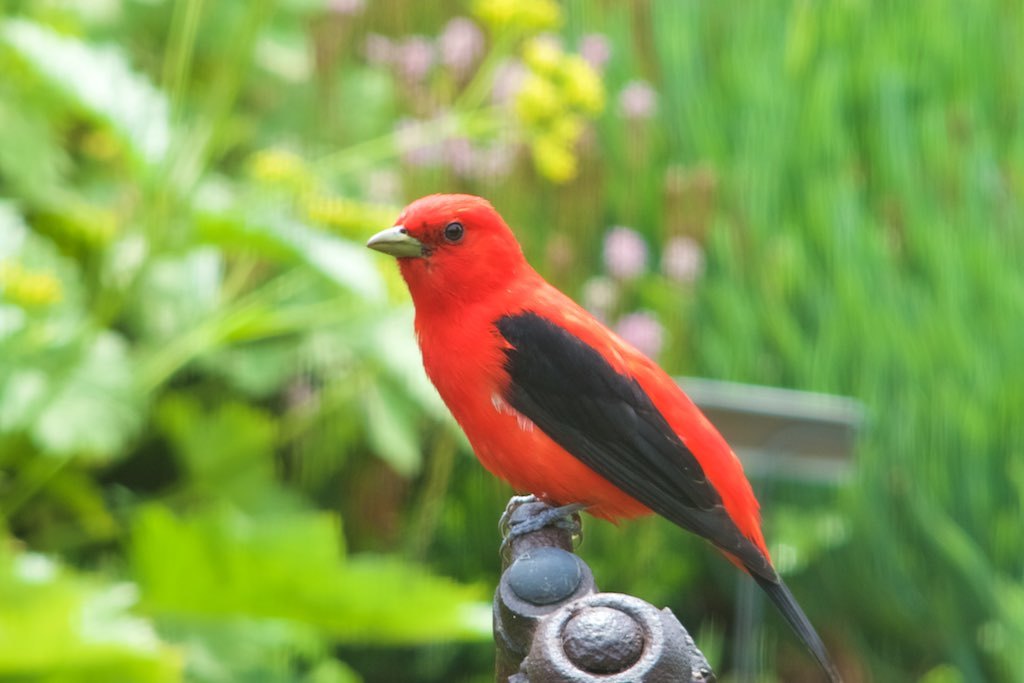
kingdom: Animalia
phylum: Chordata
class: Aves
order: Passeriformes
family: Cardinalidae
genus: Piranga
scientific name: Piranga olivacea
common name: Scarlet tanager
